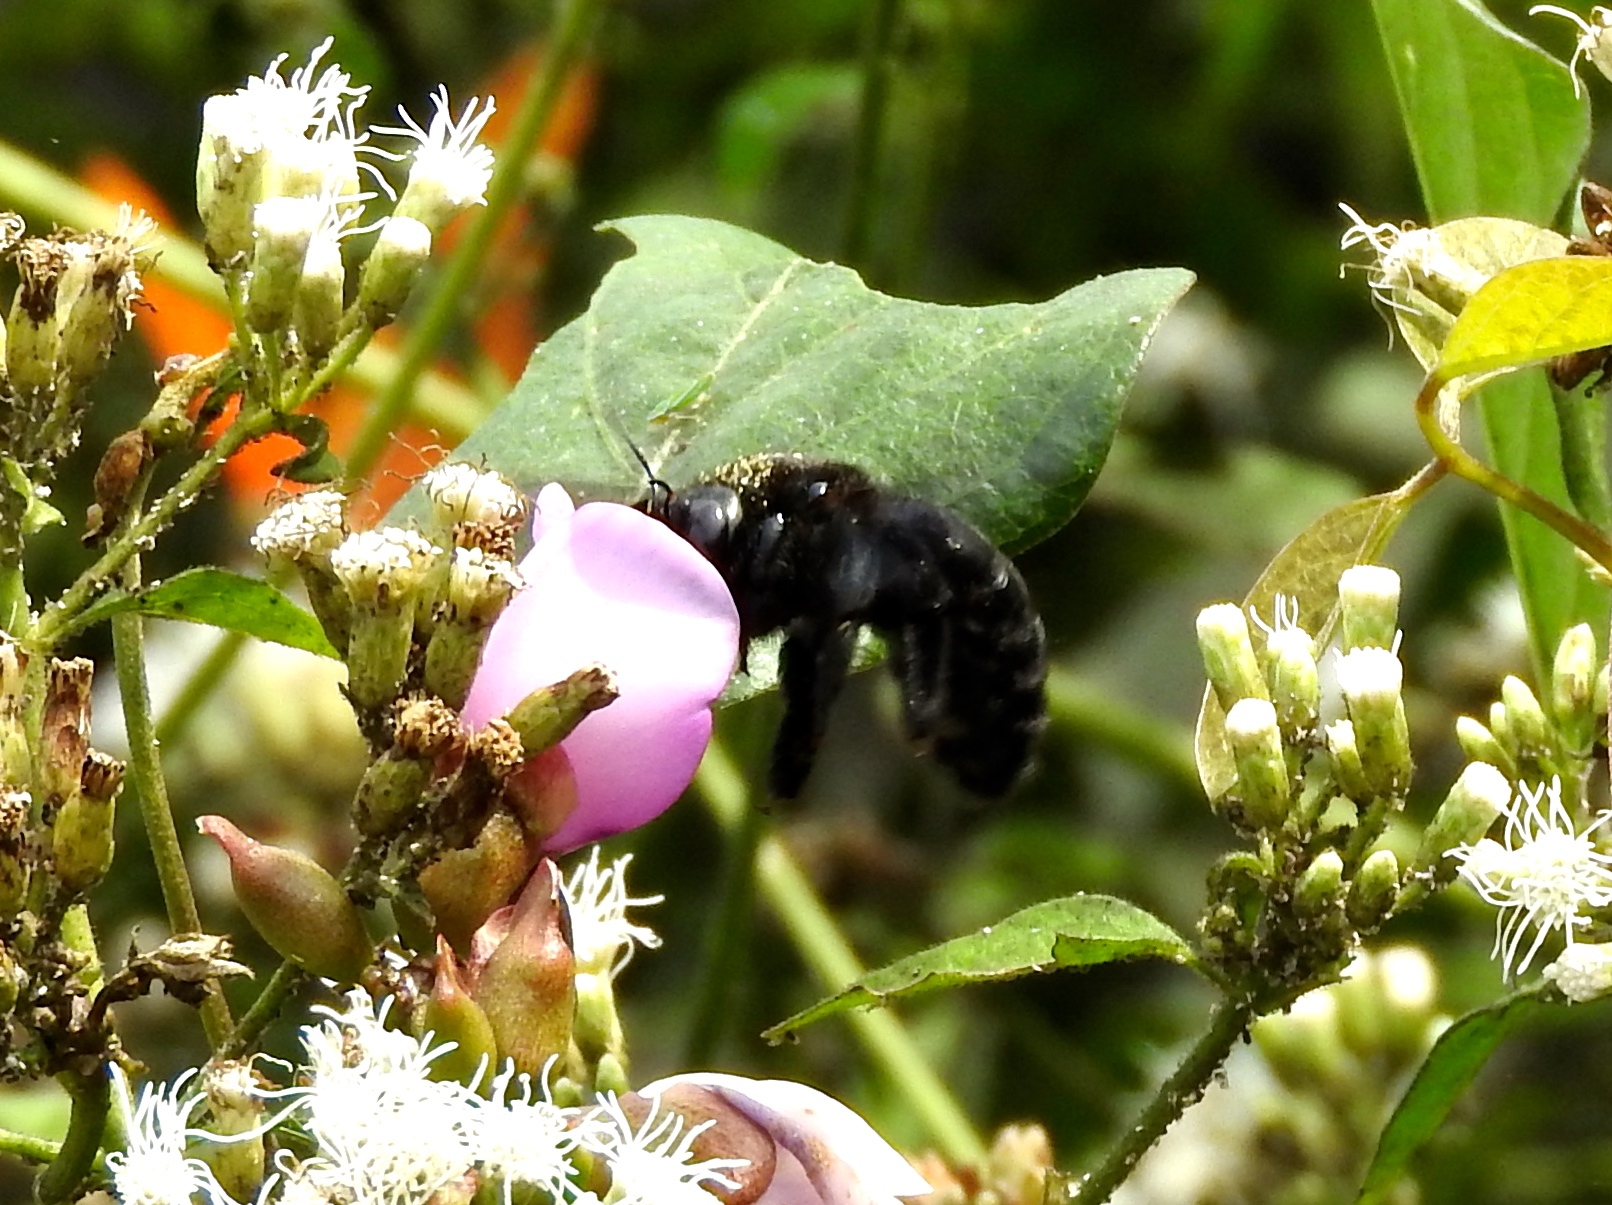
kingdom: Animalia
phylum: Arthropoda
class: Insecta
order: Hymenoptera
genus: Neoxylocopa
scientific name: Neoxylocopa
